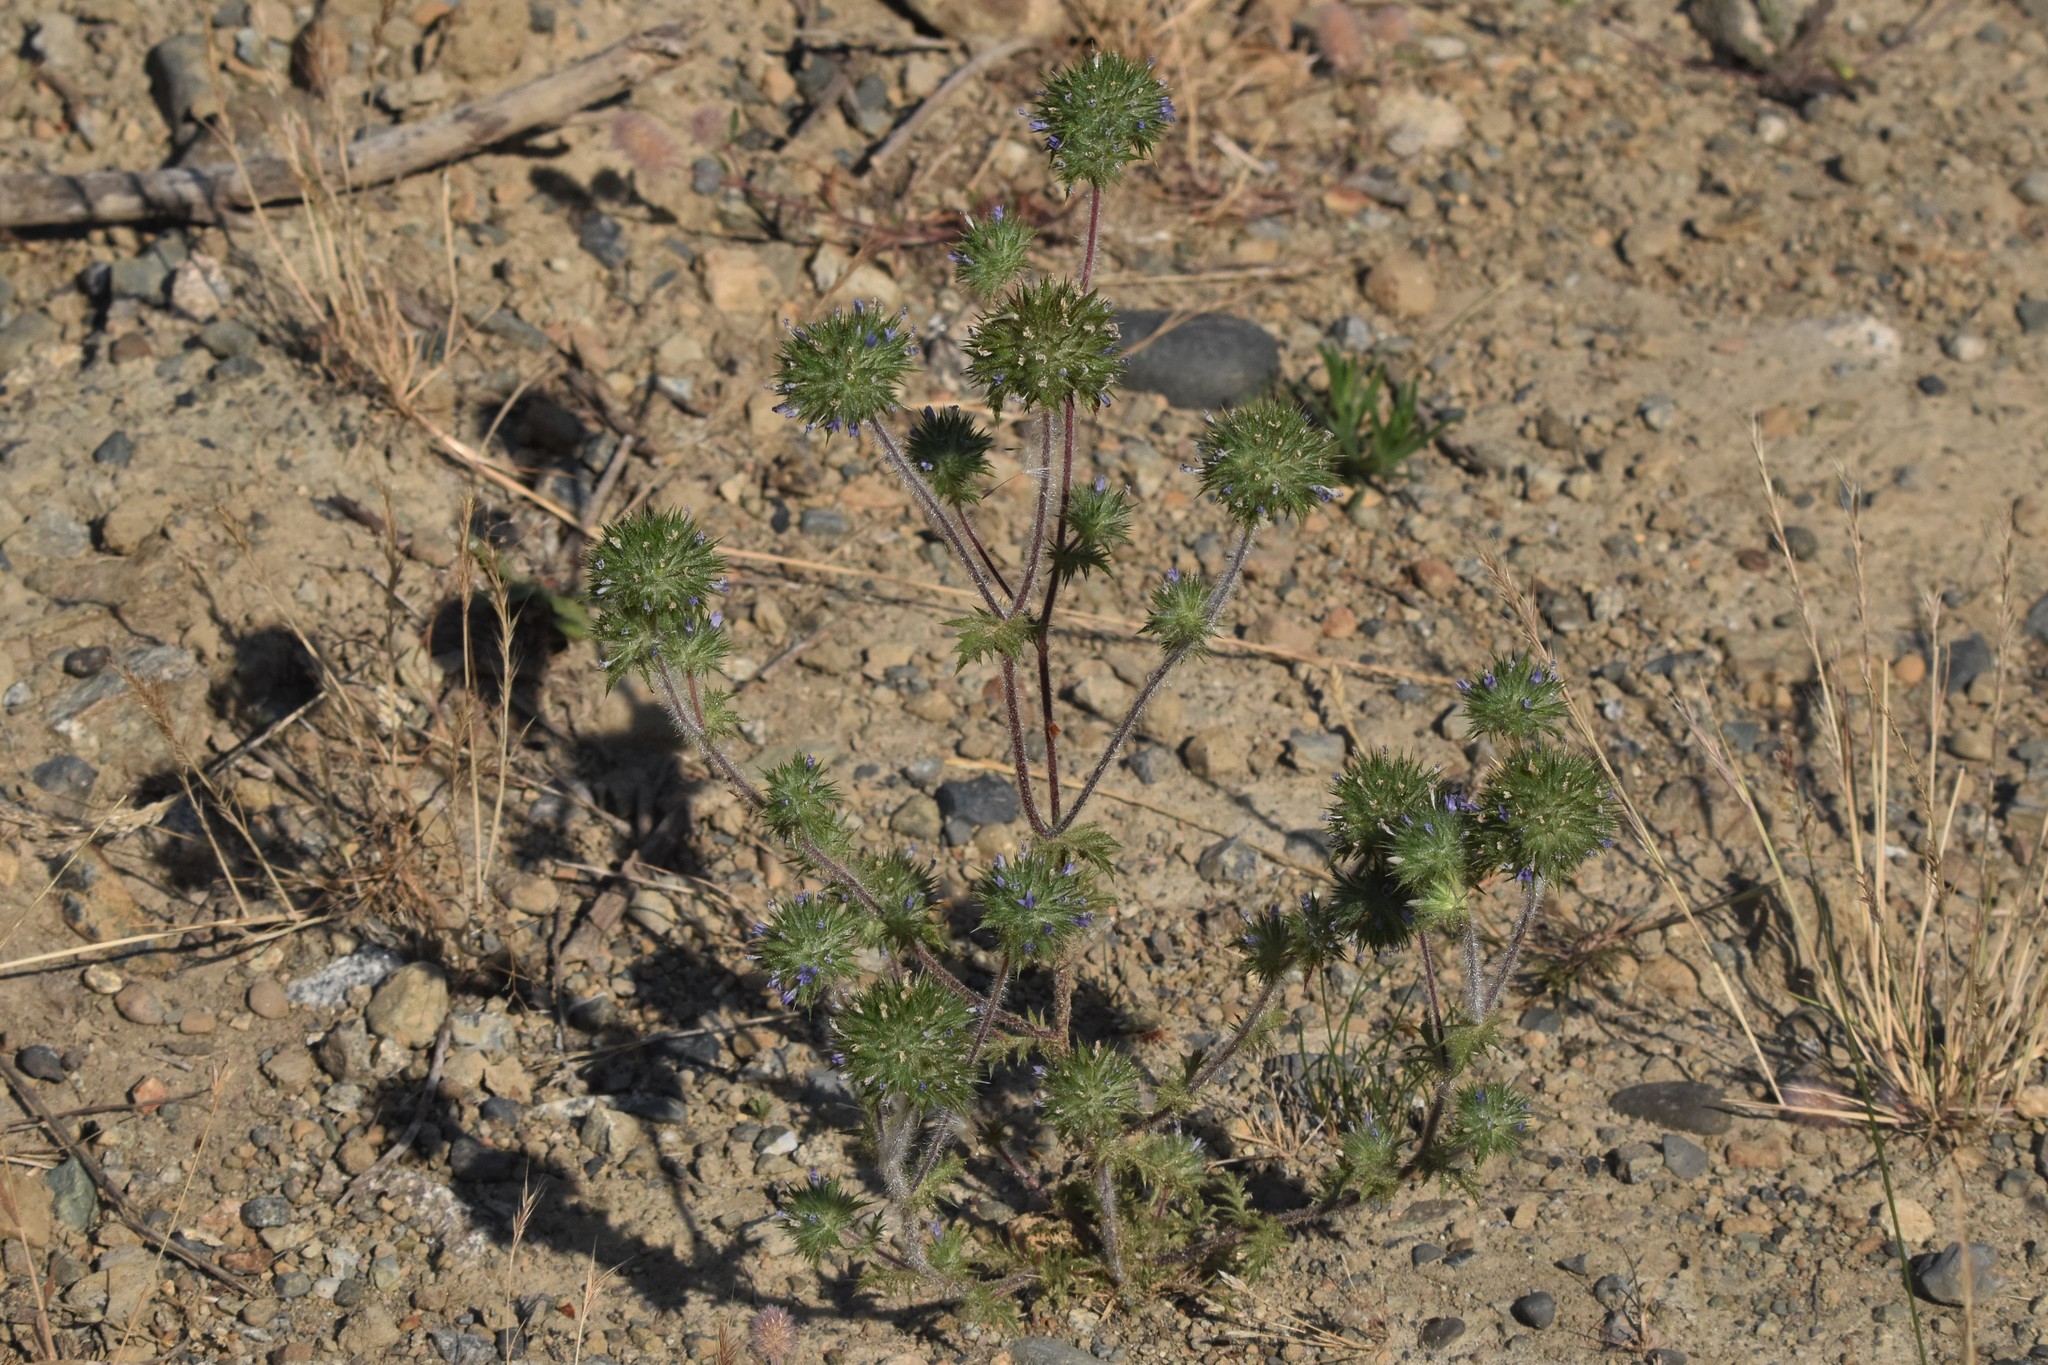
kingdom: Plantae
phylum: Tracheophyta
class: Magnoliopsida
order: Ericales
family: Polemoniaceae
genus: Navarretia
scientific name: Navarretia squarrosa
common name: Skunkweed
